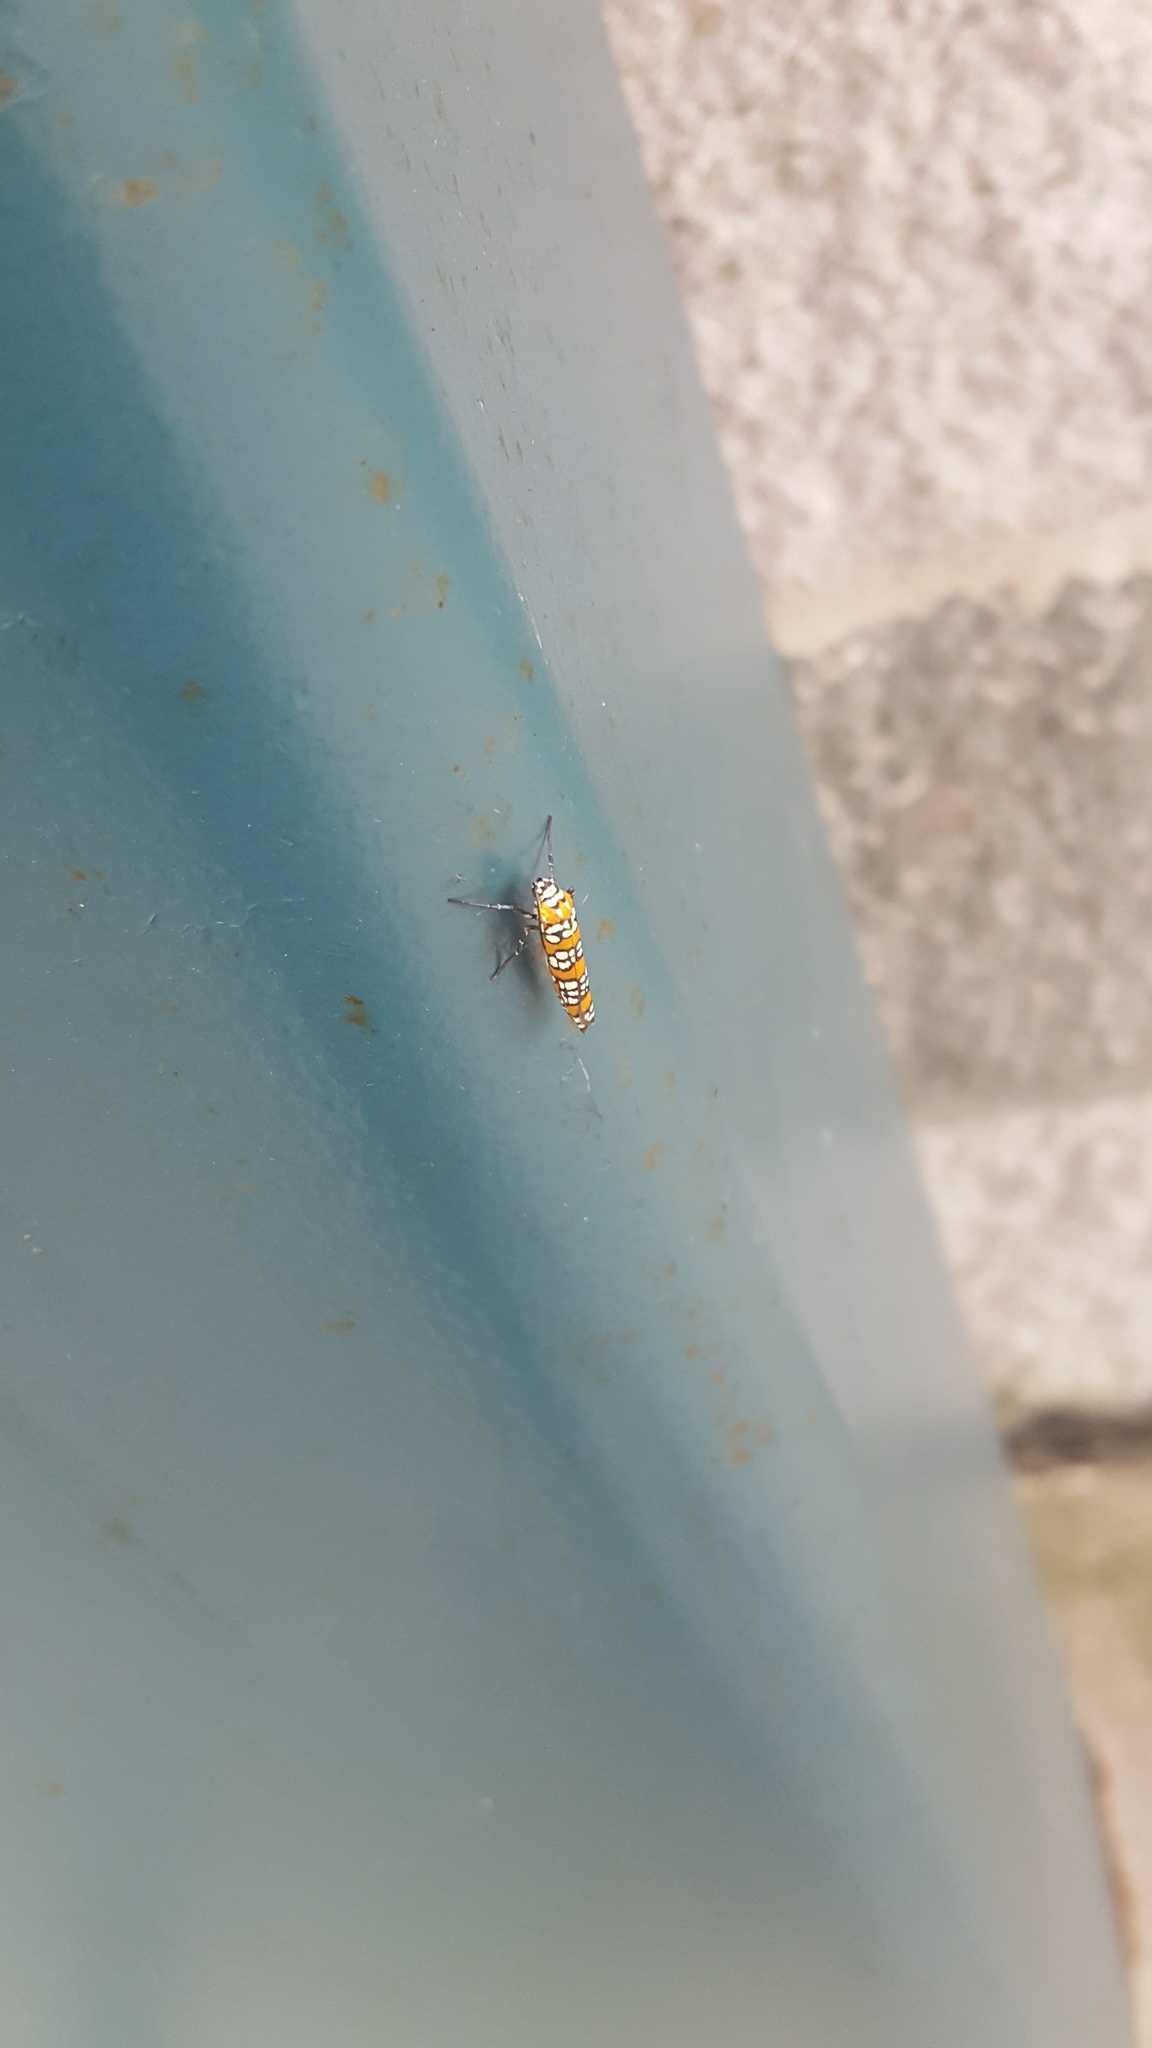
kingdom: Animalia
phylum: Arthropoda
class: Insecta
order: Lepidoptera
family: Attevidae
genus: Atteva
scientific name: Atteva punctella
